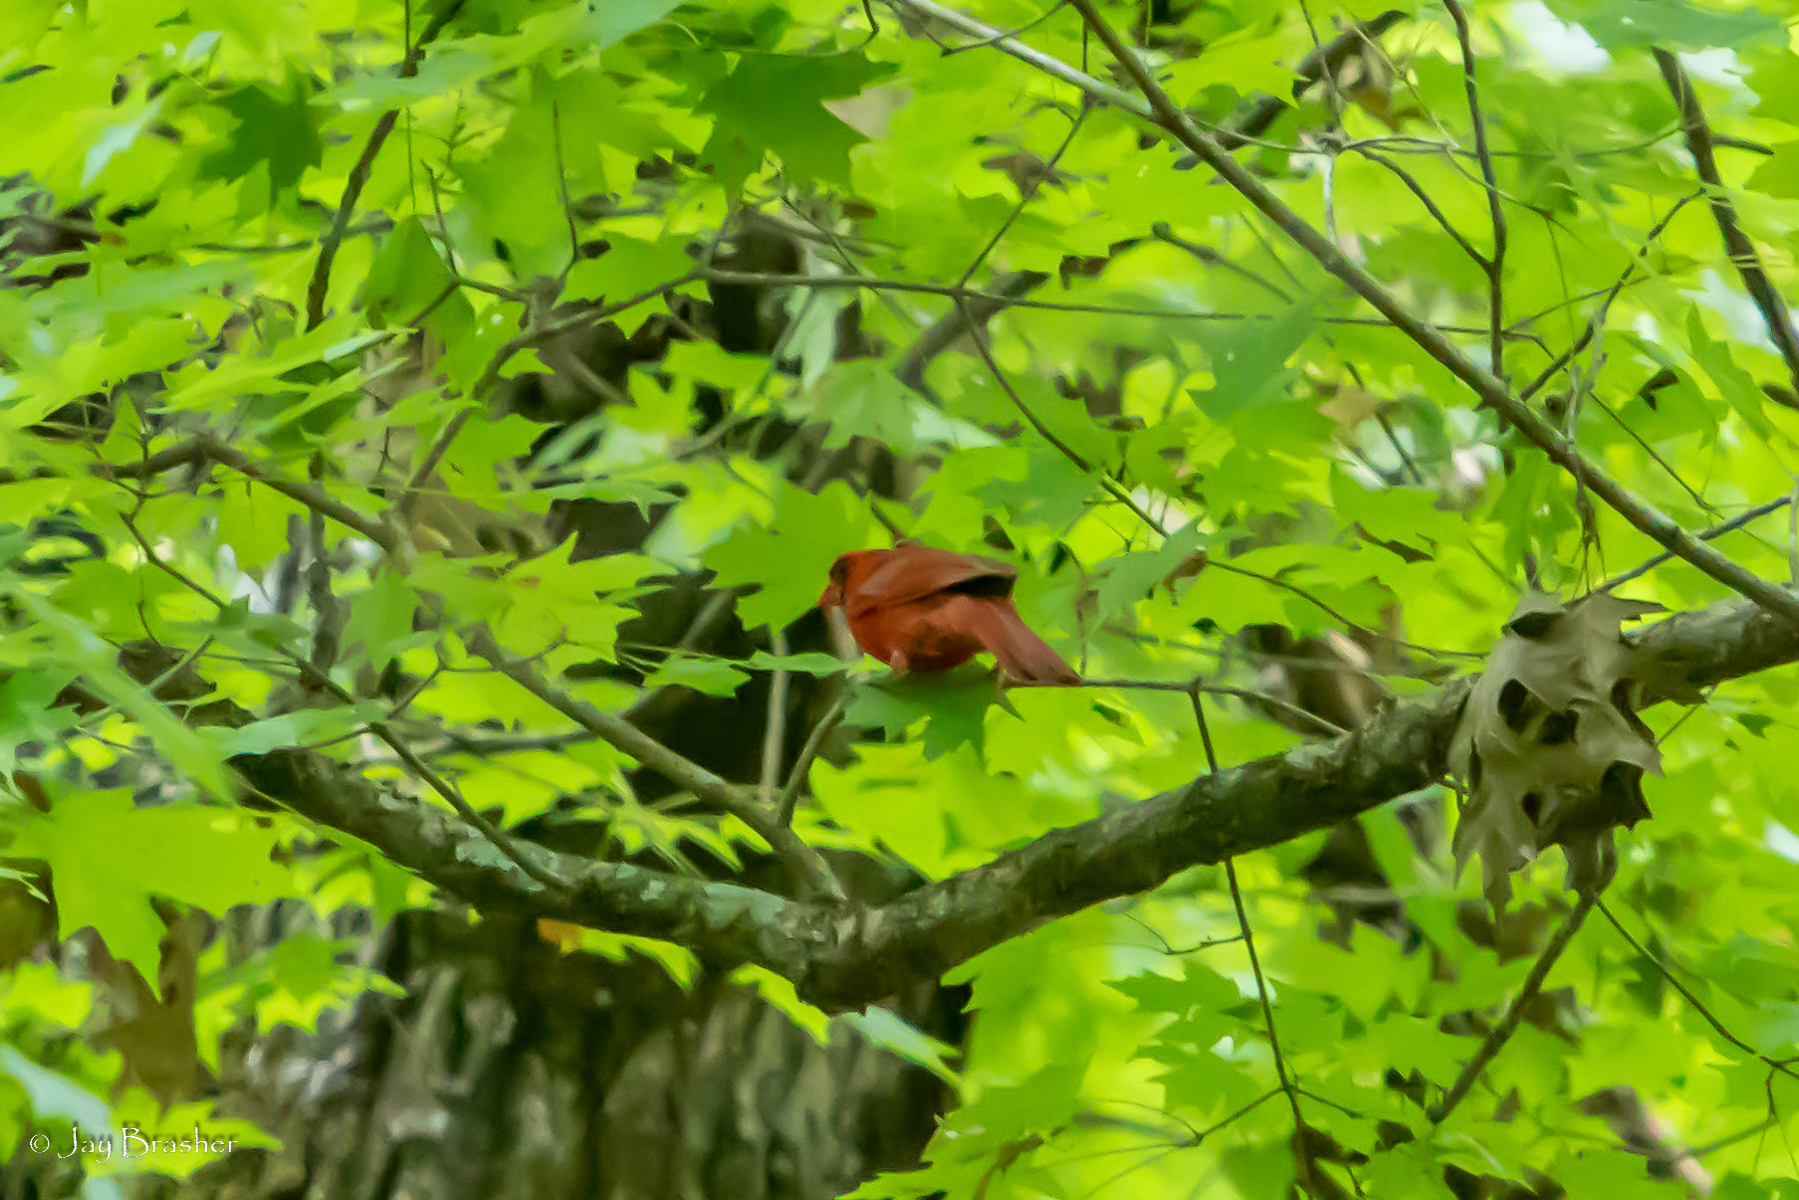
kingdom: Animalia
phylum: Chordata
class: Aves
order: Passeriformes
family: Cardinalidae
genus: Cardinalis
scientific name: Cardinalis cardinalis
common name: Northern cardinal
